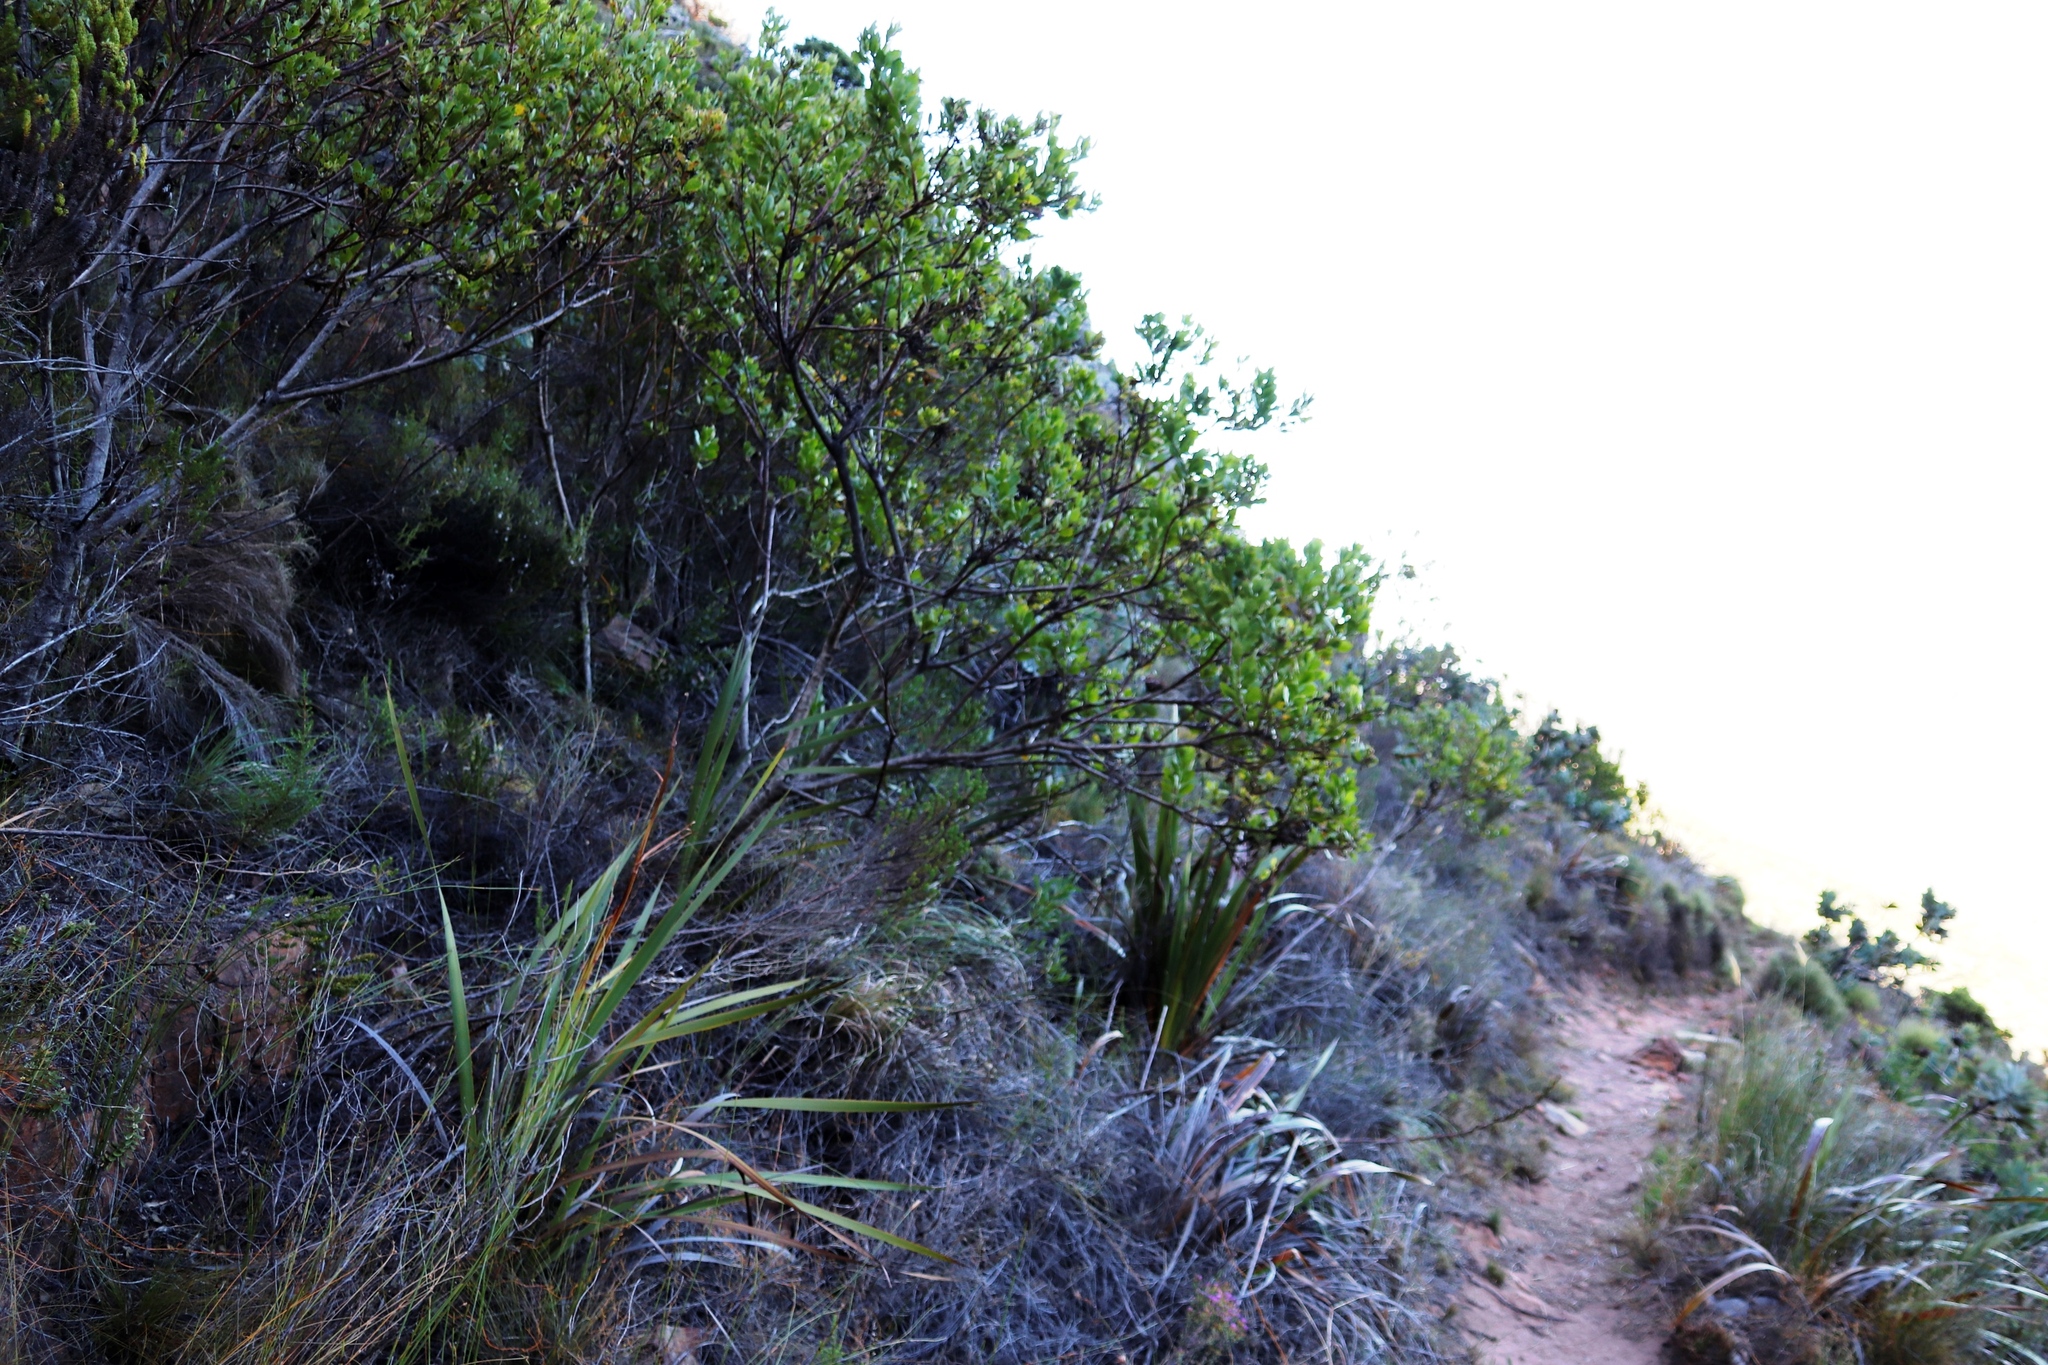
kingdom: Plantae
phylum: Tracheophyta
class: Magnoliopsida
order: Asterales
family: Asteraceae
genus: Osteospermum
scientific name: Osteospermum moniliferum
